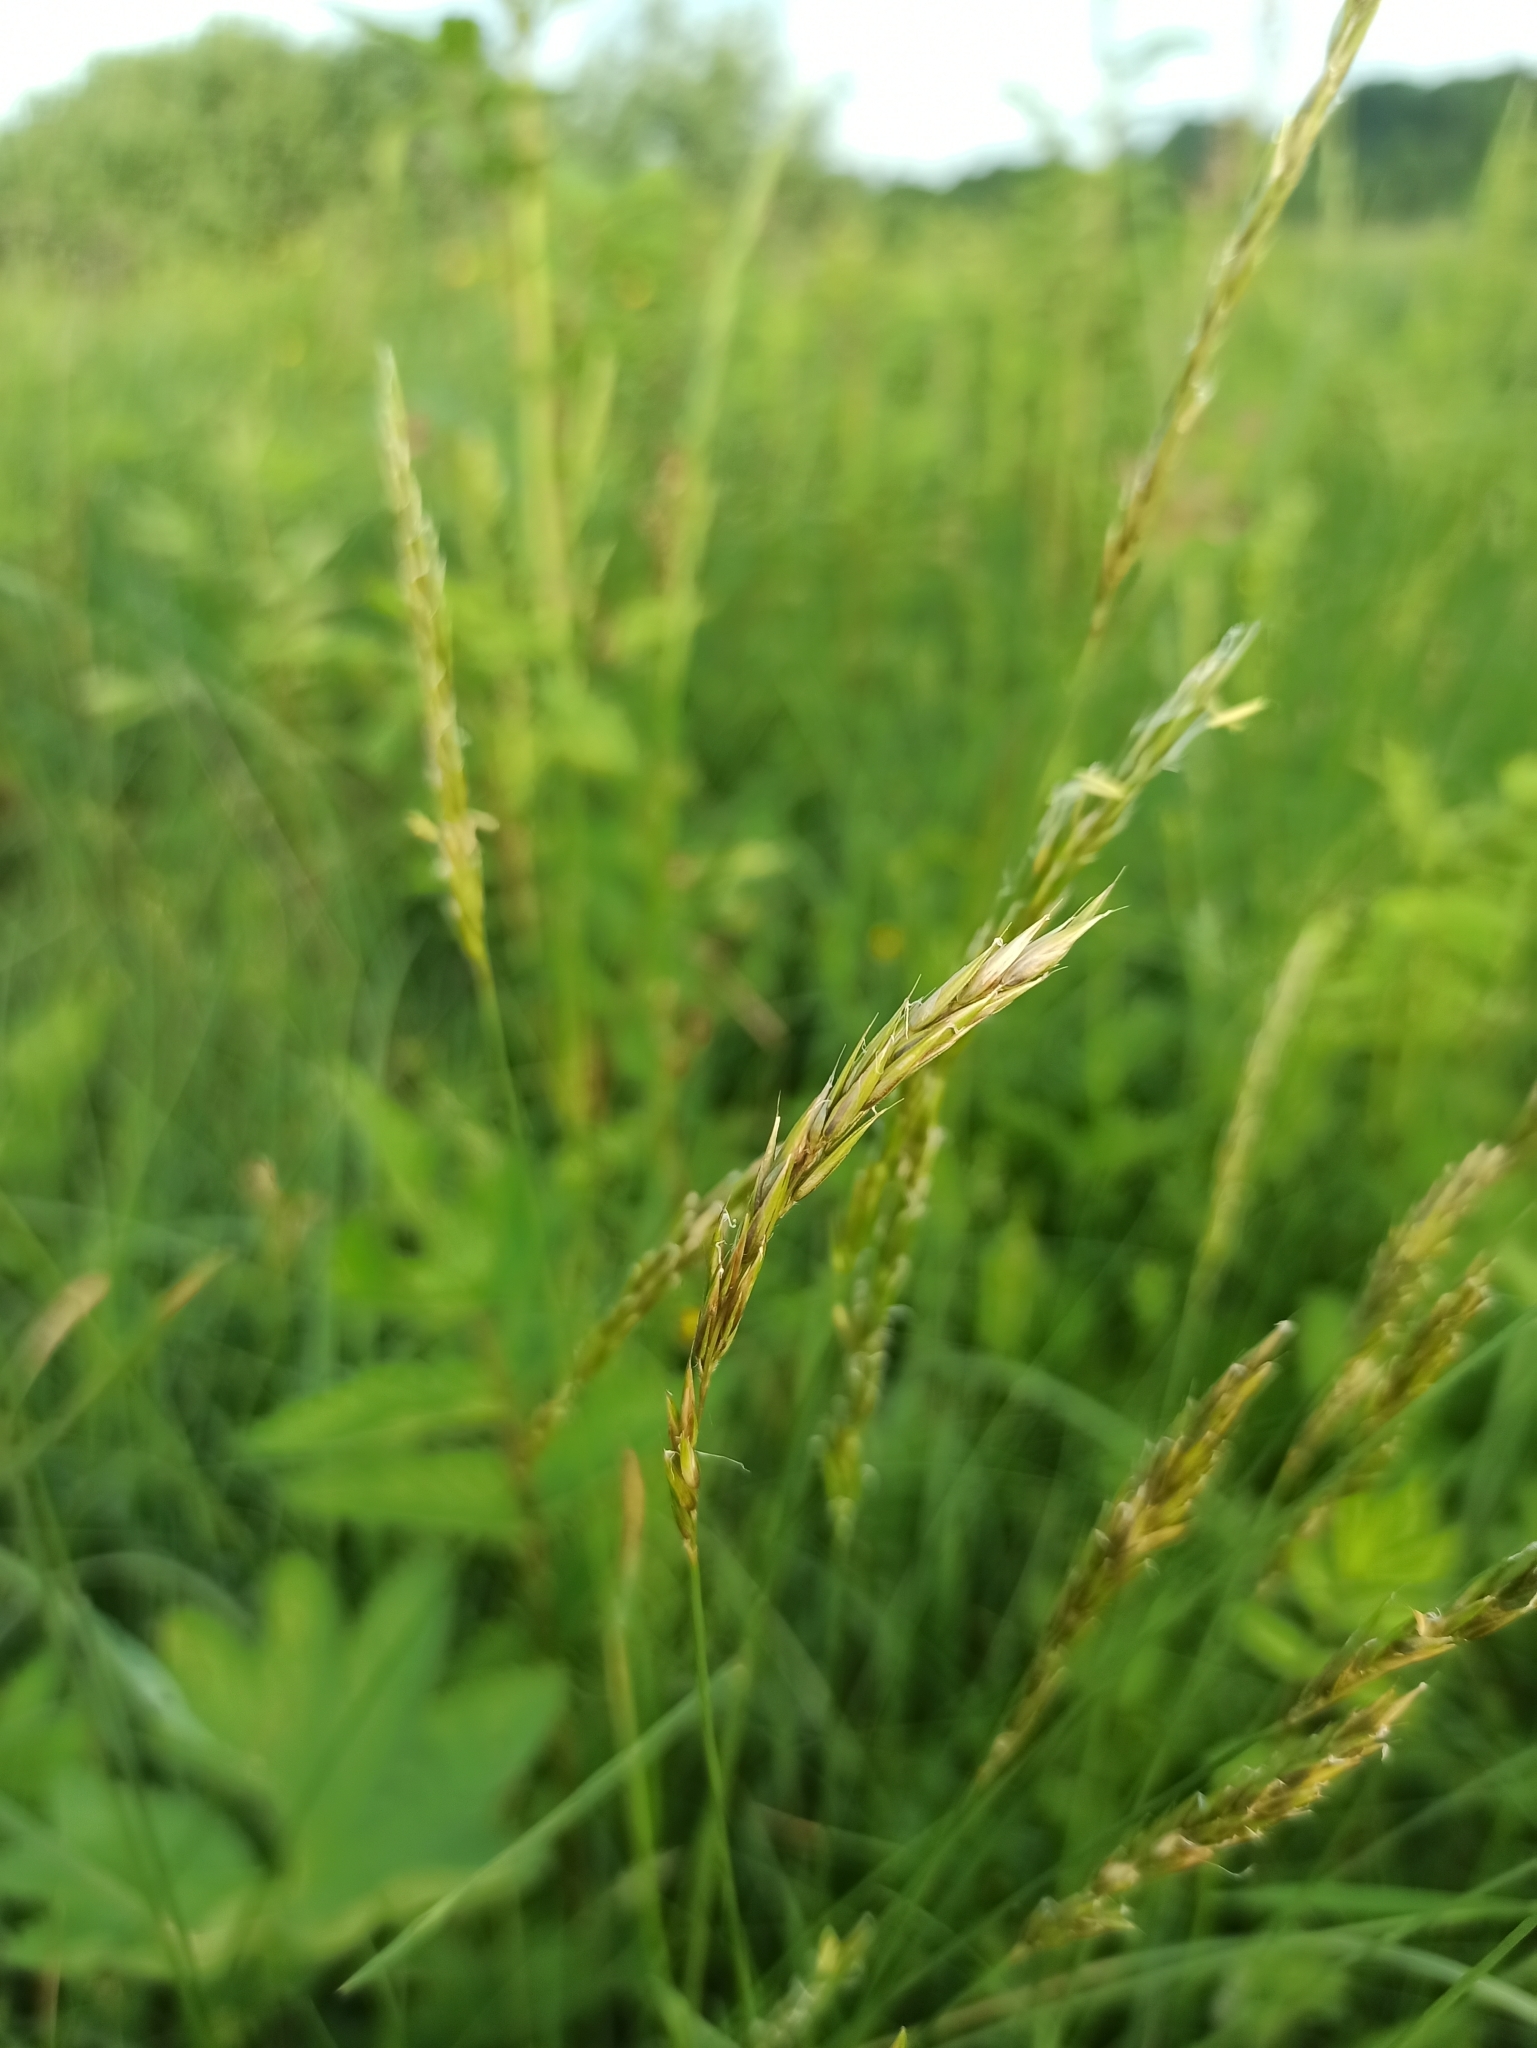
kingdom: Plantae
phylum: Tracheophyta
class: Liliopsida
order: Poales
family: Poaceae
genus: Anthoxanthum
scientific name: Anthoxanthum odoratum
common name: Sweet vernalgrass
